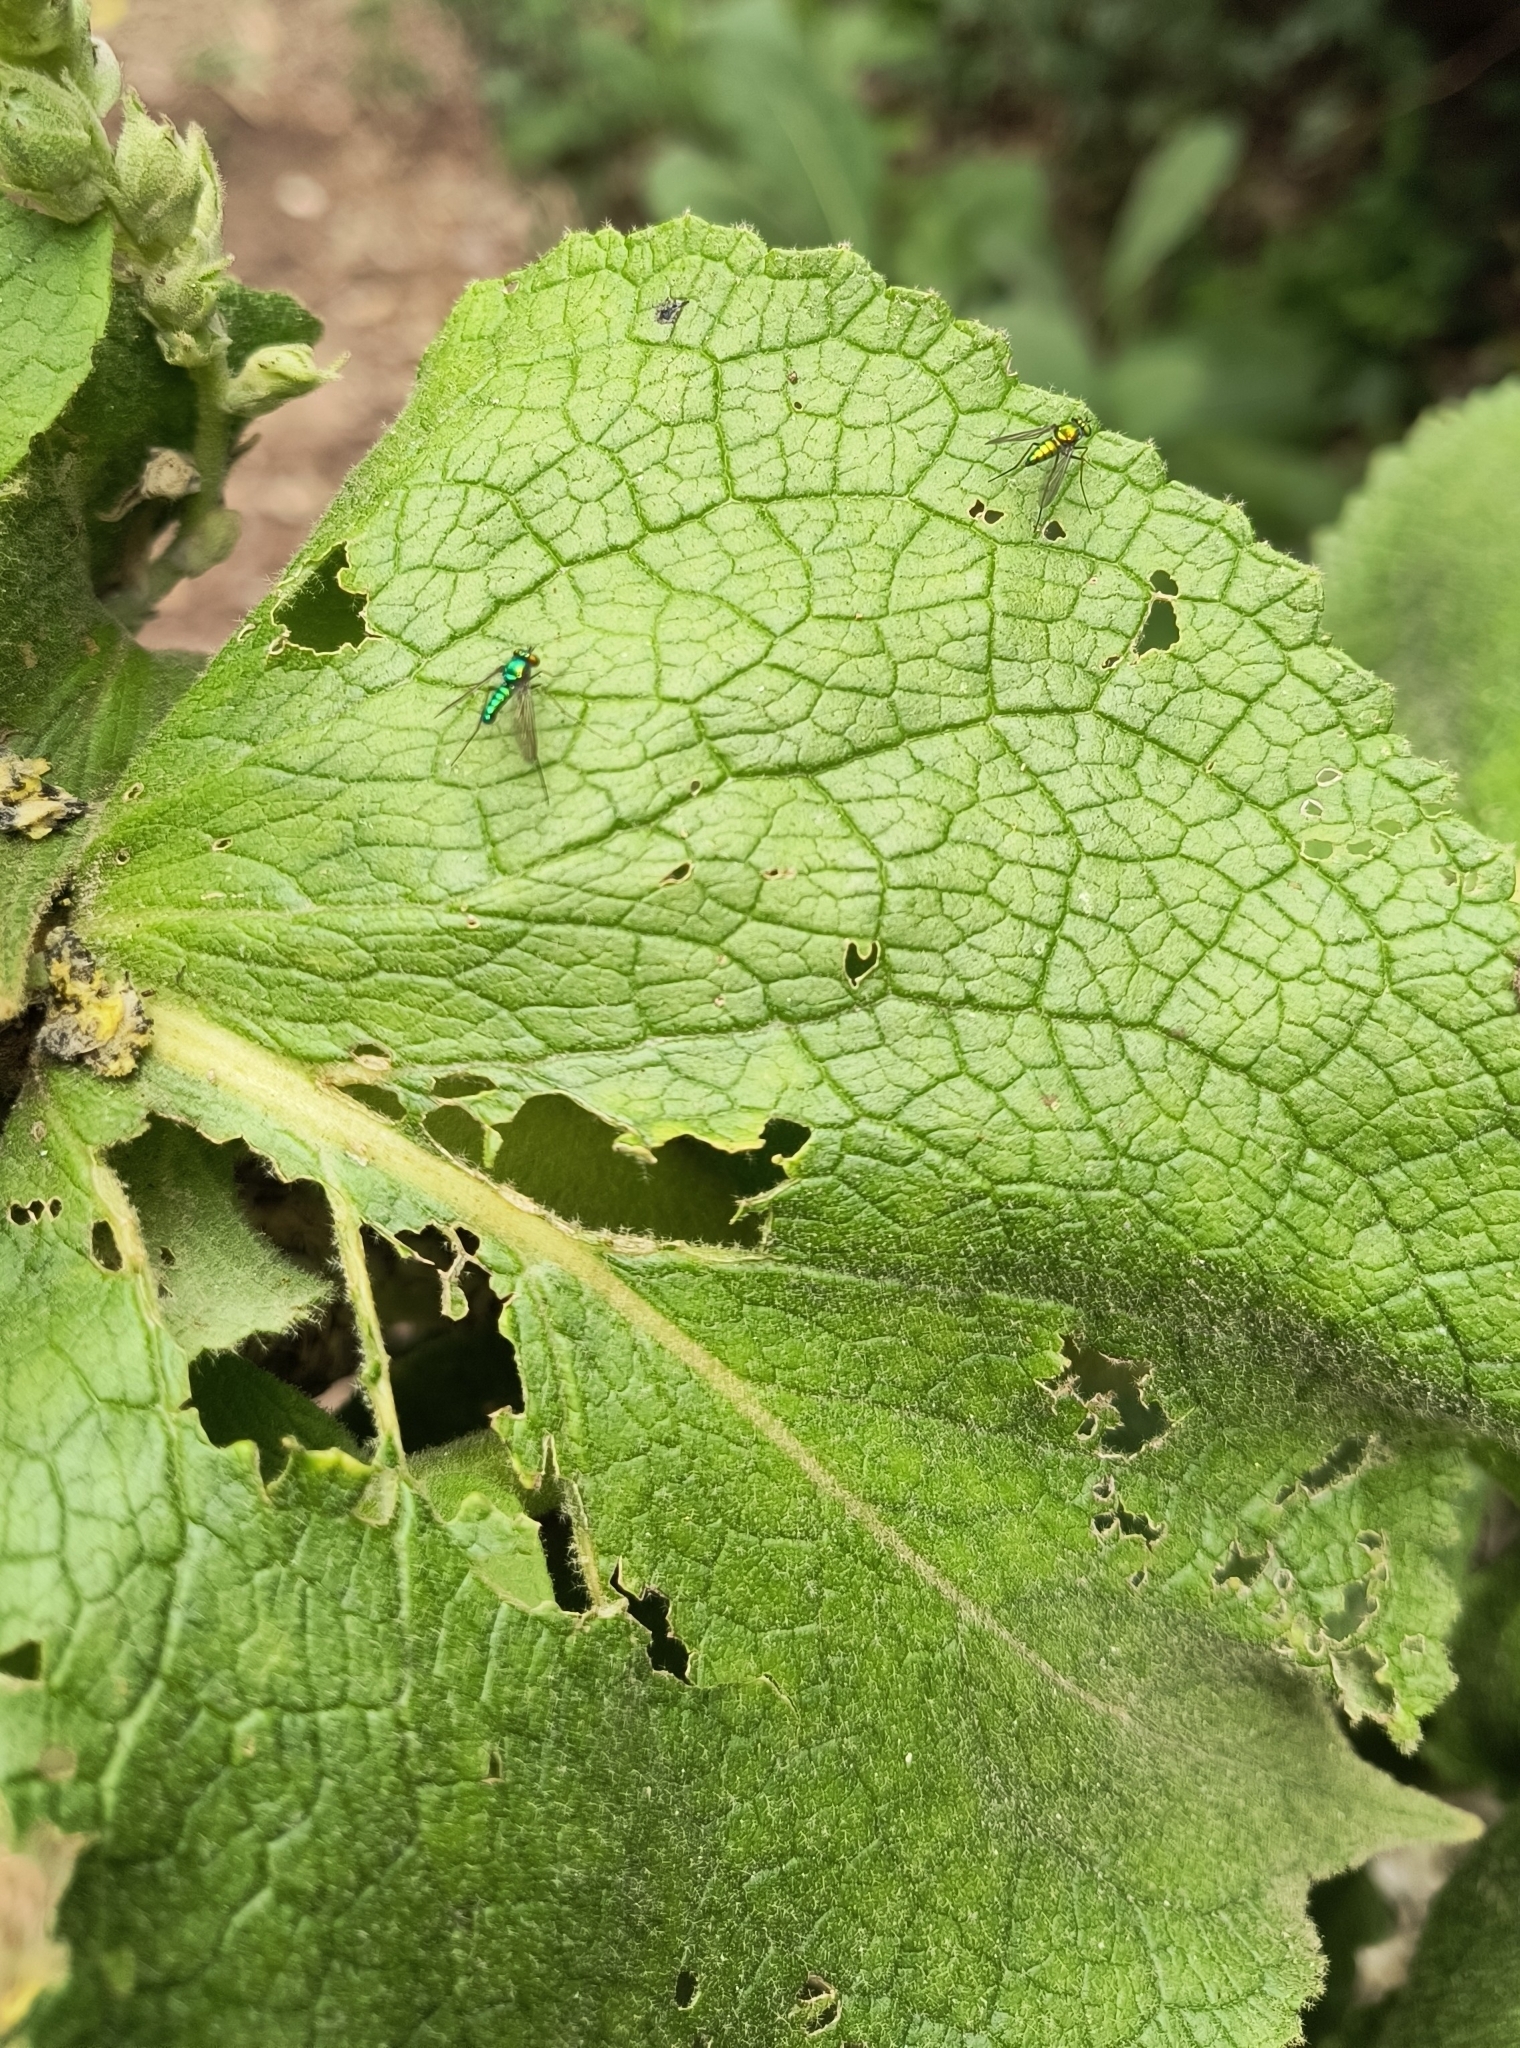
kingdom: Animalia
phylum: Arthropoda
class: Insecta
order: Diptera
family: Dolichopodidae
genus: Condylostylus
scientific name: Condylostylus
